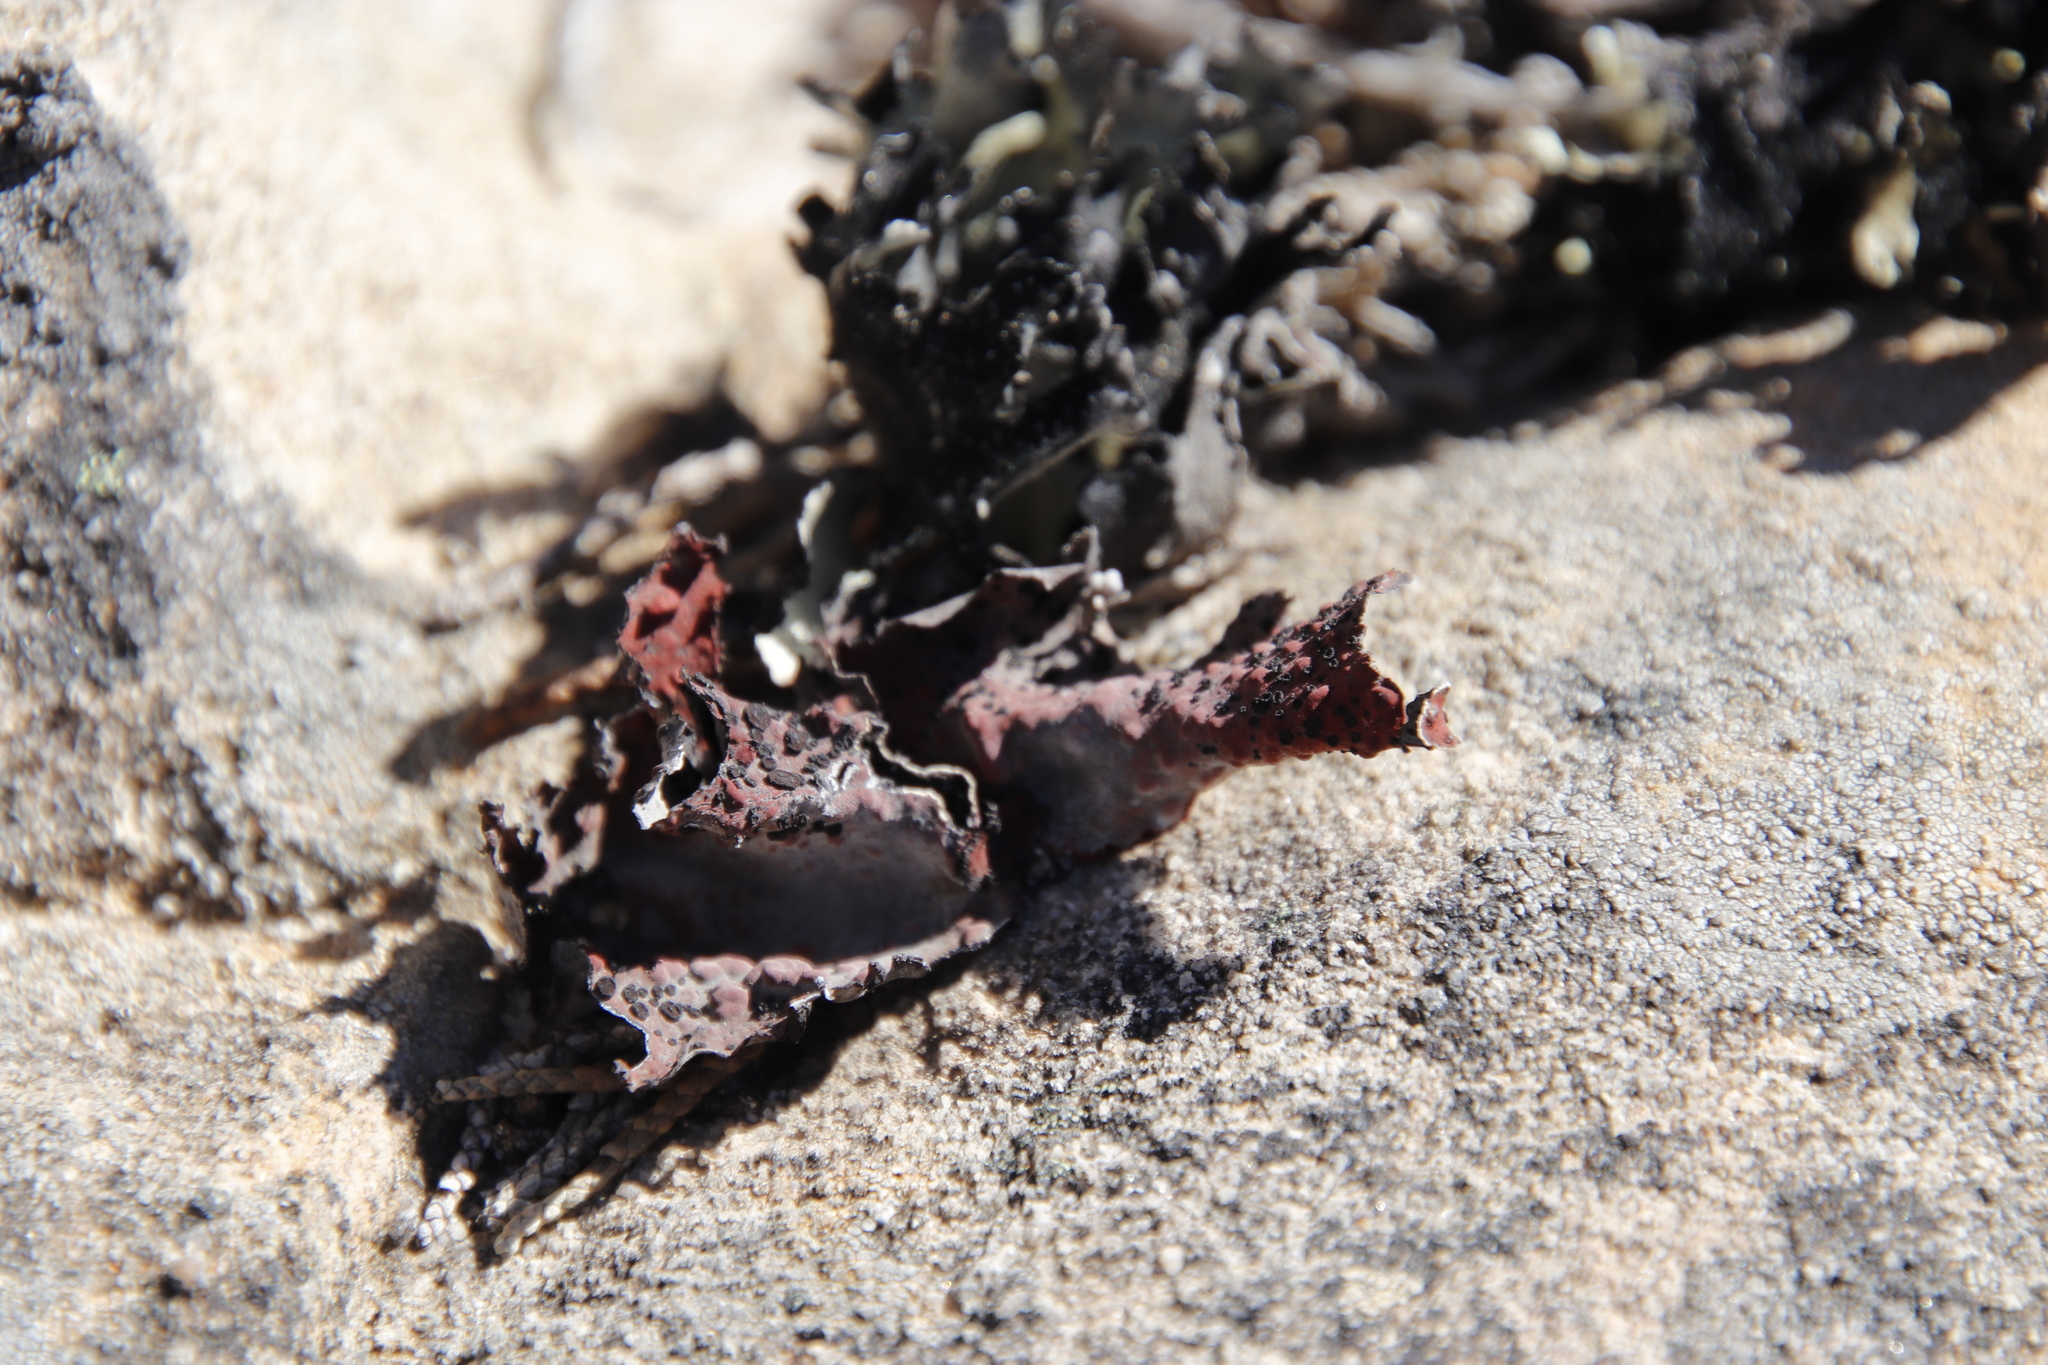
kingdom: Fungi
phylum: Ascomycota
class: Lecanoromycetes
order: Umbilicariales
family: Umbilicariaceae
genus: Lasallia
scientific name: Lasallia rubiginosa
